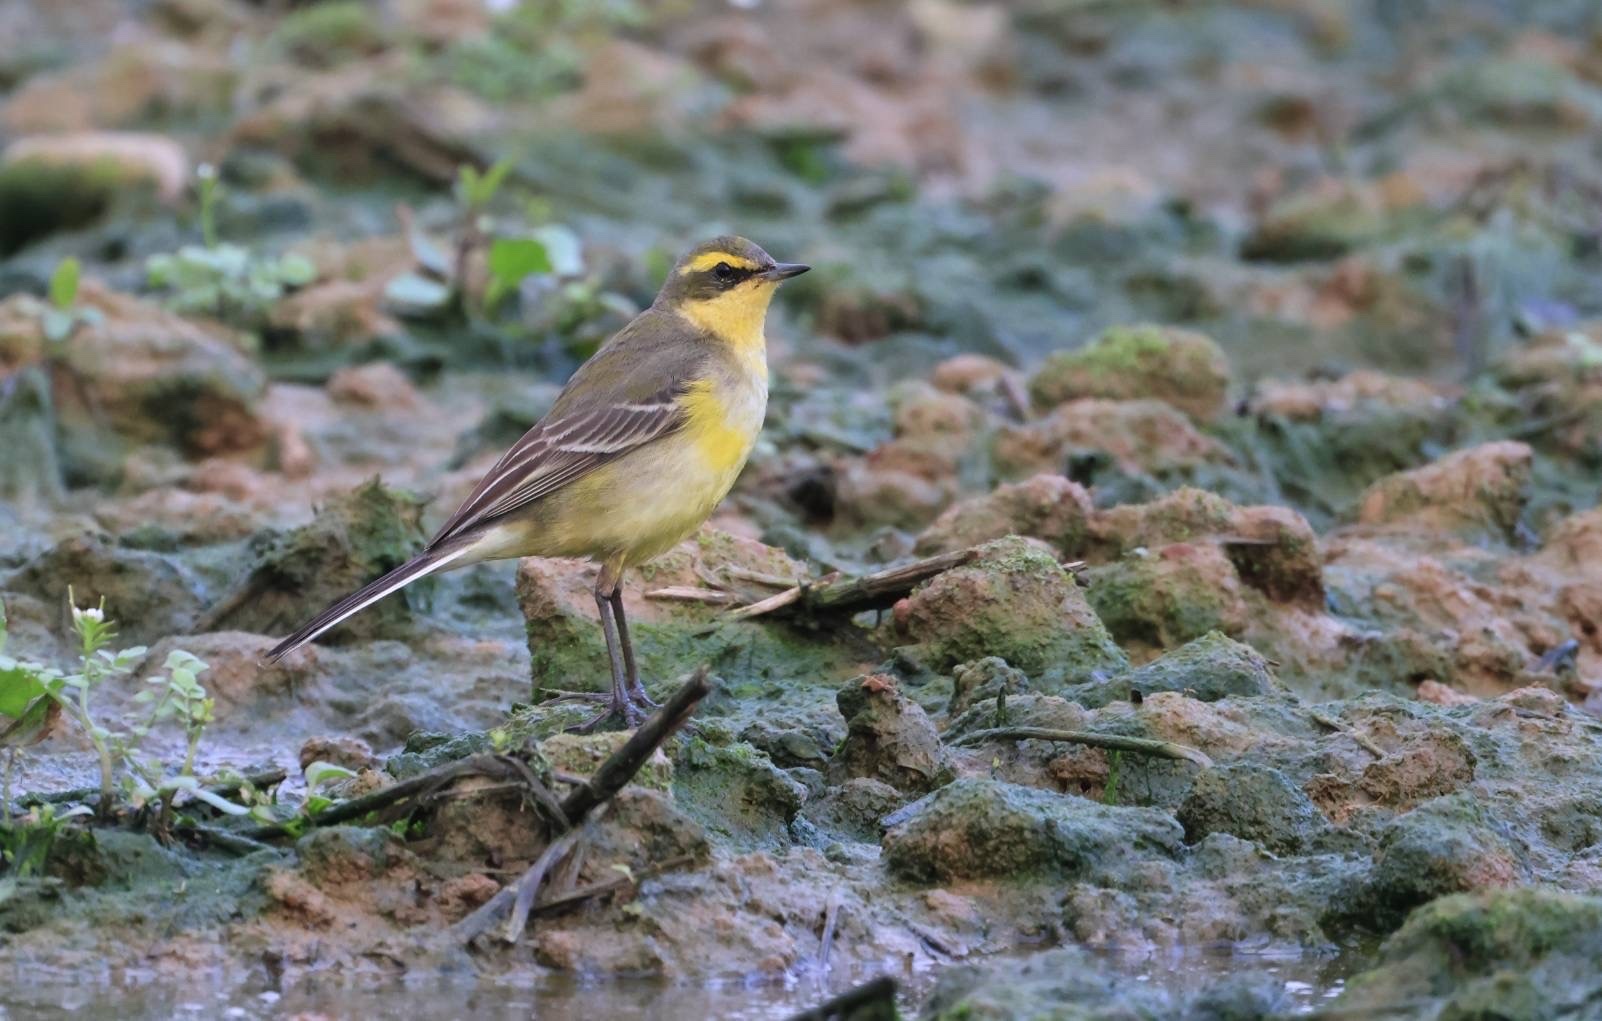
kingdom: Animalia
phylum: Chordata
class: Aves
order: Passeriformes
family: Motacillidae
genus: Motacilla
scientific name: Motacilla tschutschensis
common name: Eastern yellow wagtail
